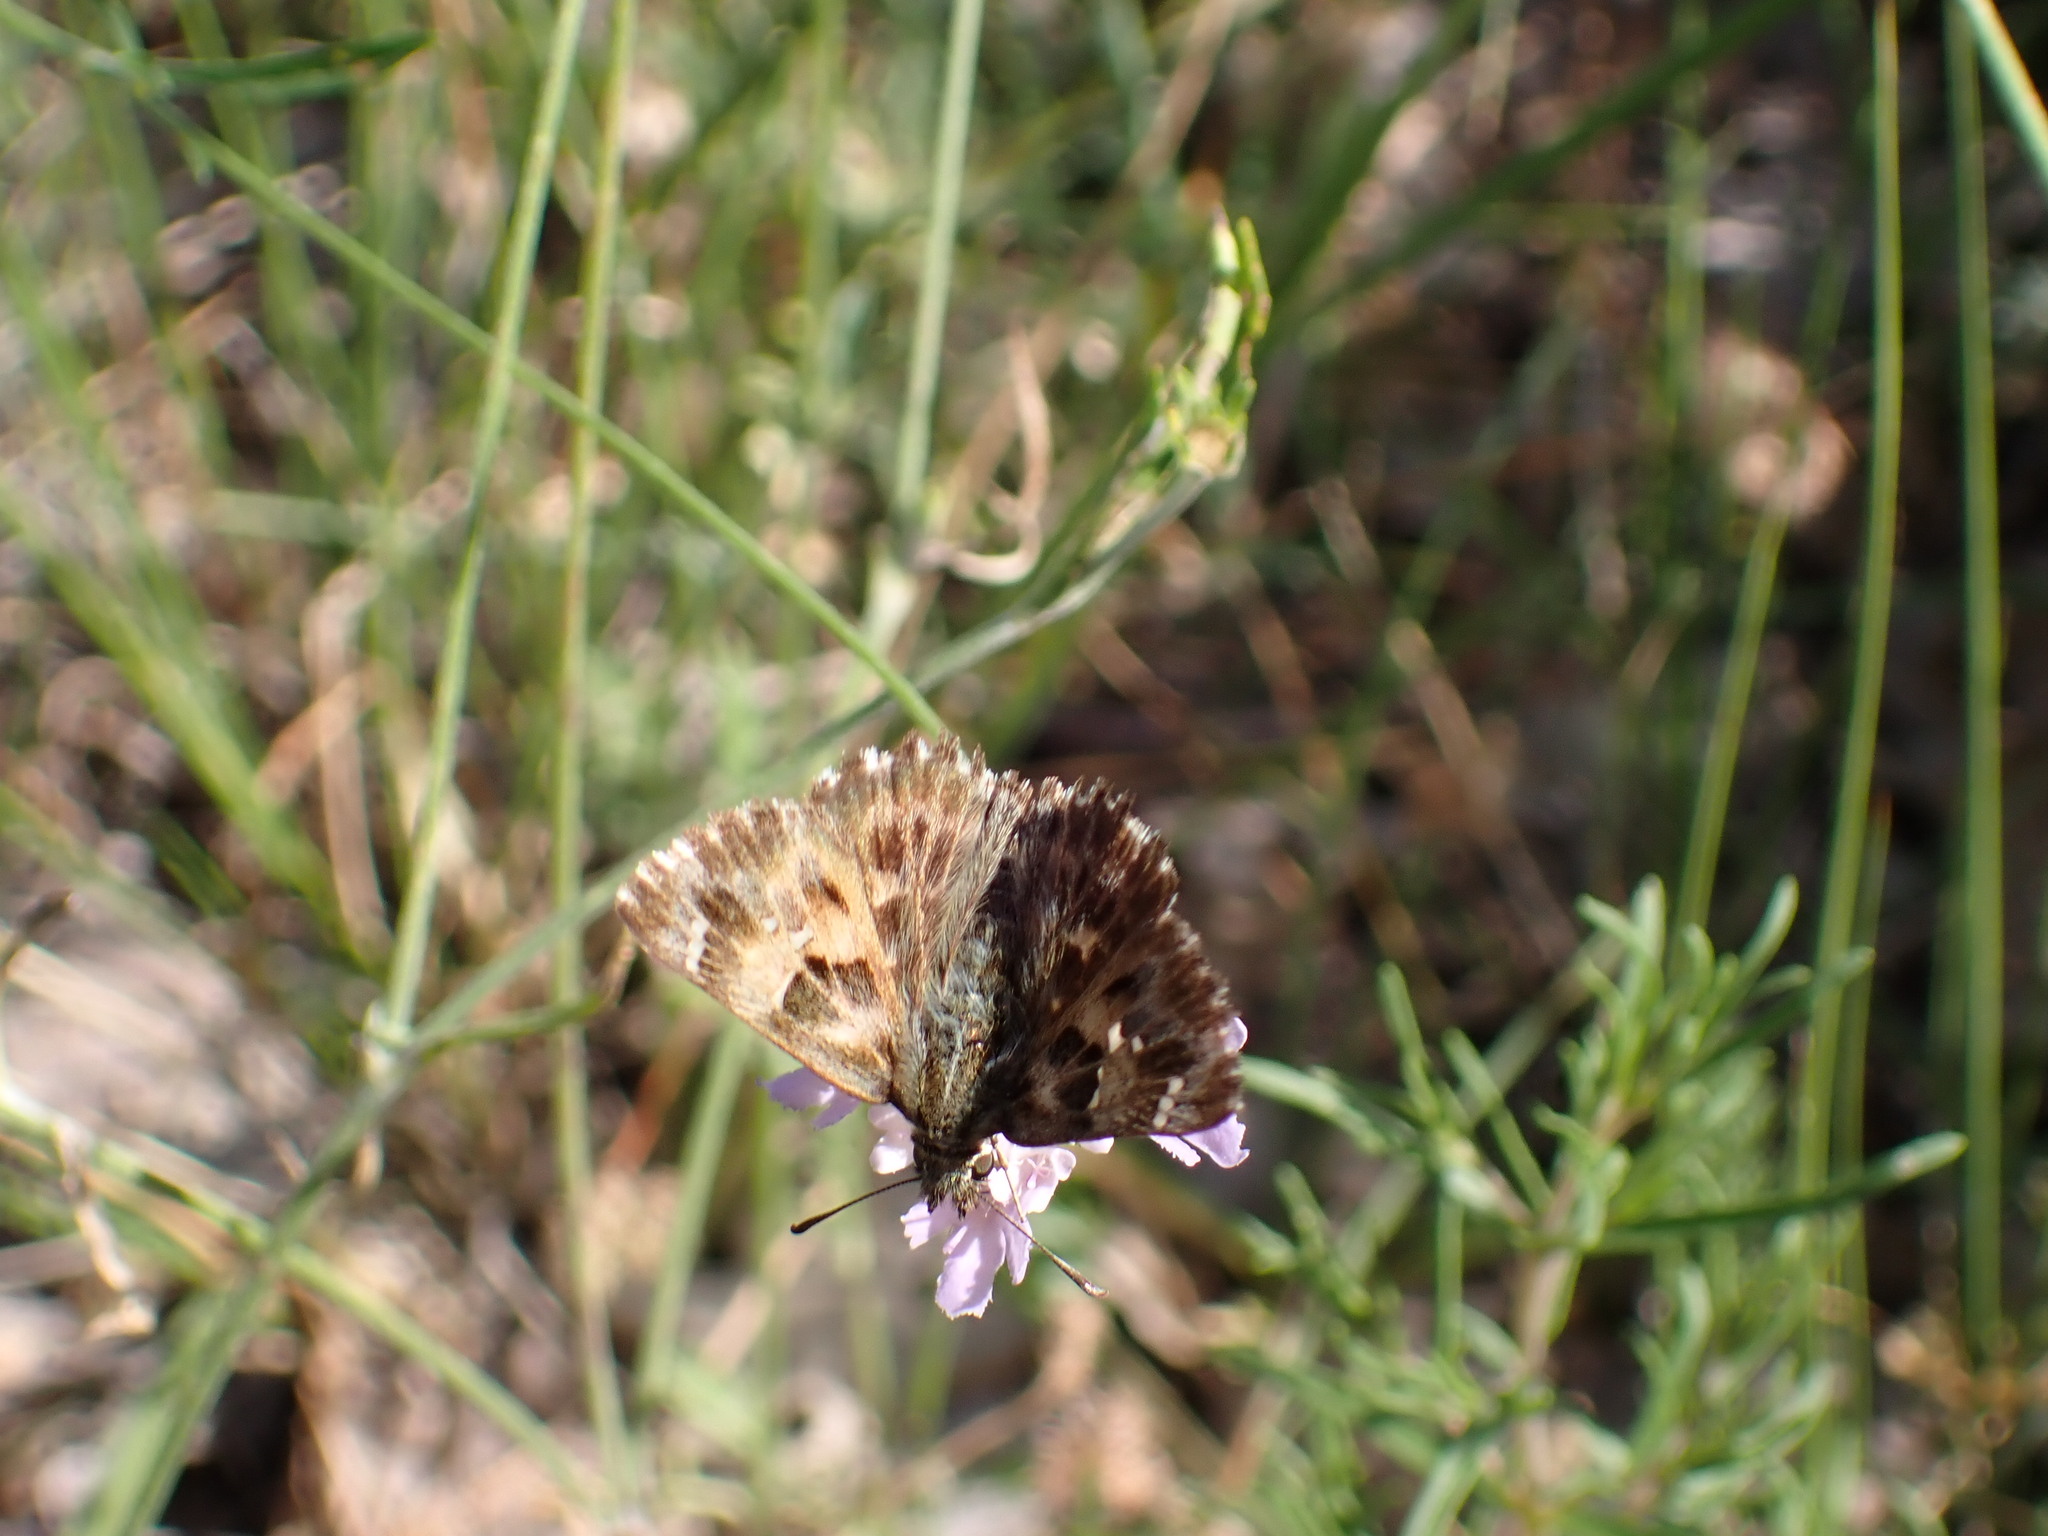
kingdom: Animalia
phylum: Arthropoda
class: Insecta
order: Lepidoptera
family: Hesperiidae
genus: Carcharodus
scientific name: Carcharodus alceae
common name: Mallow skipper
